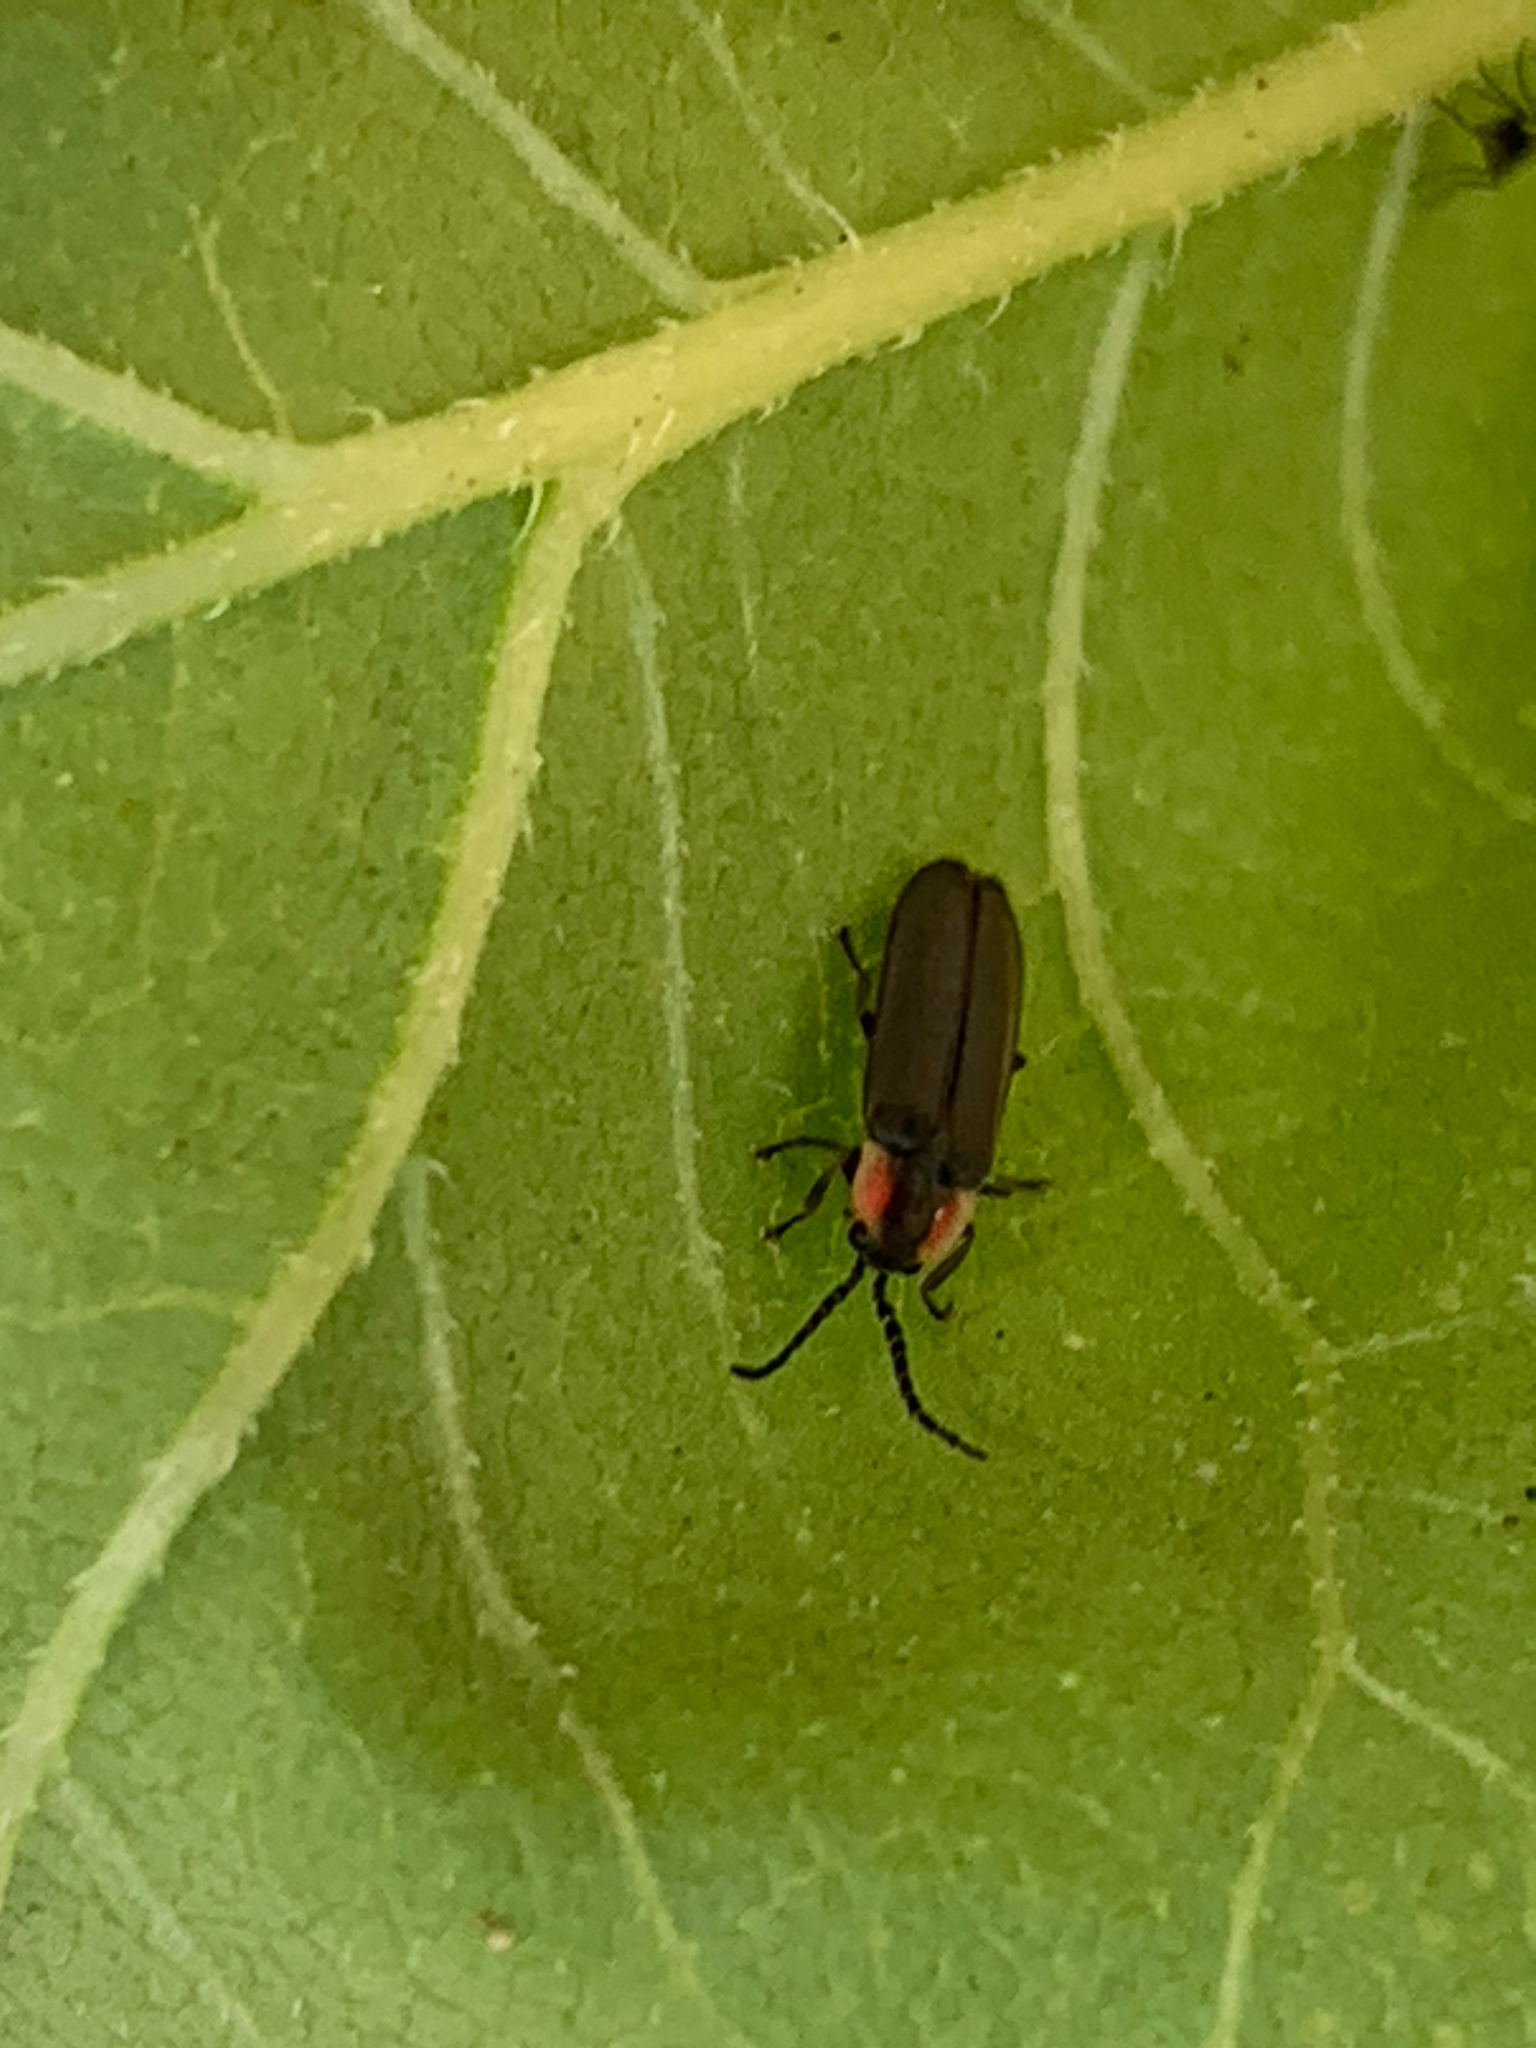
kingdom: Animalia
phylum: Arthropoda
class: Insecta
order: Coleoptera
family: Lampyridae
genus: Pyropyga
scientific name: Pyropyga
